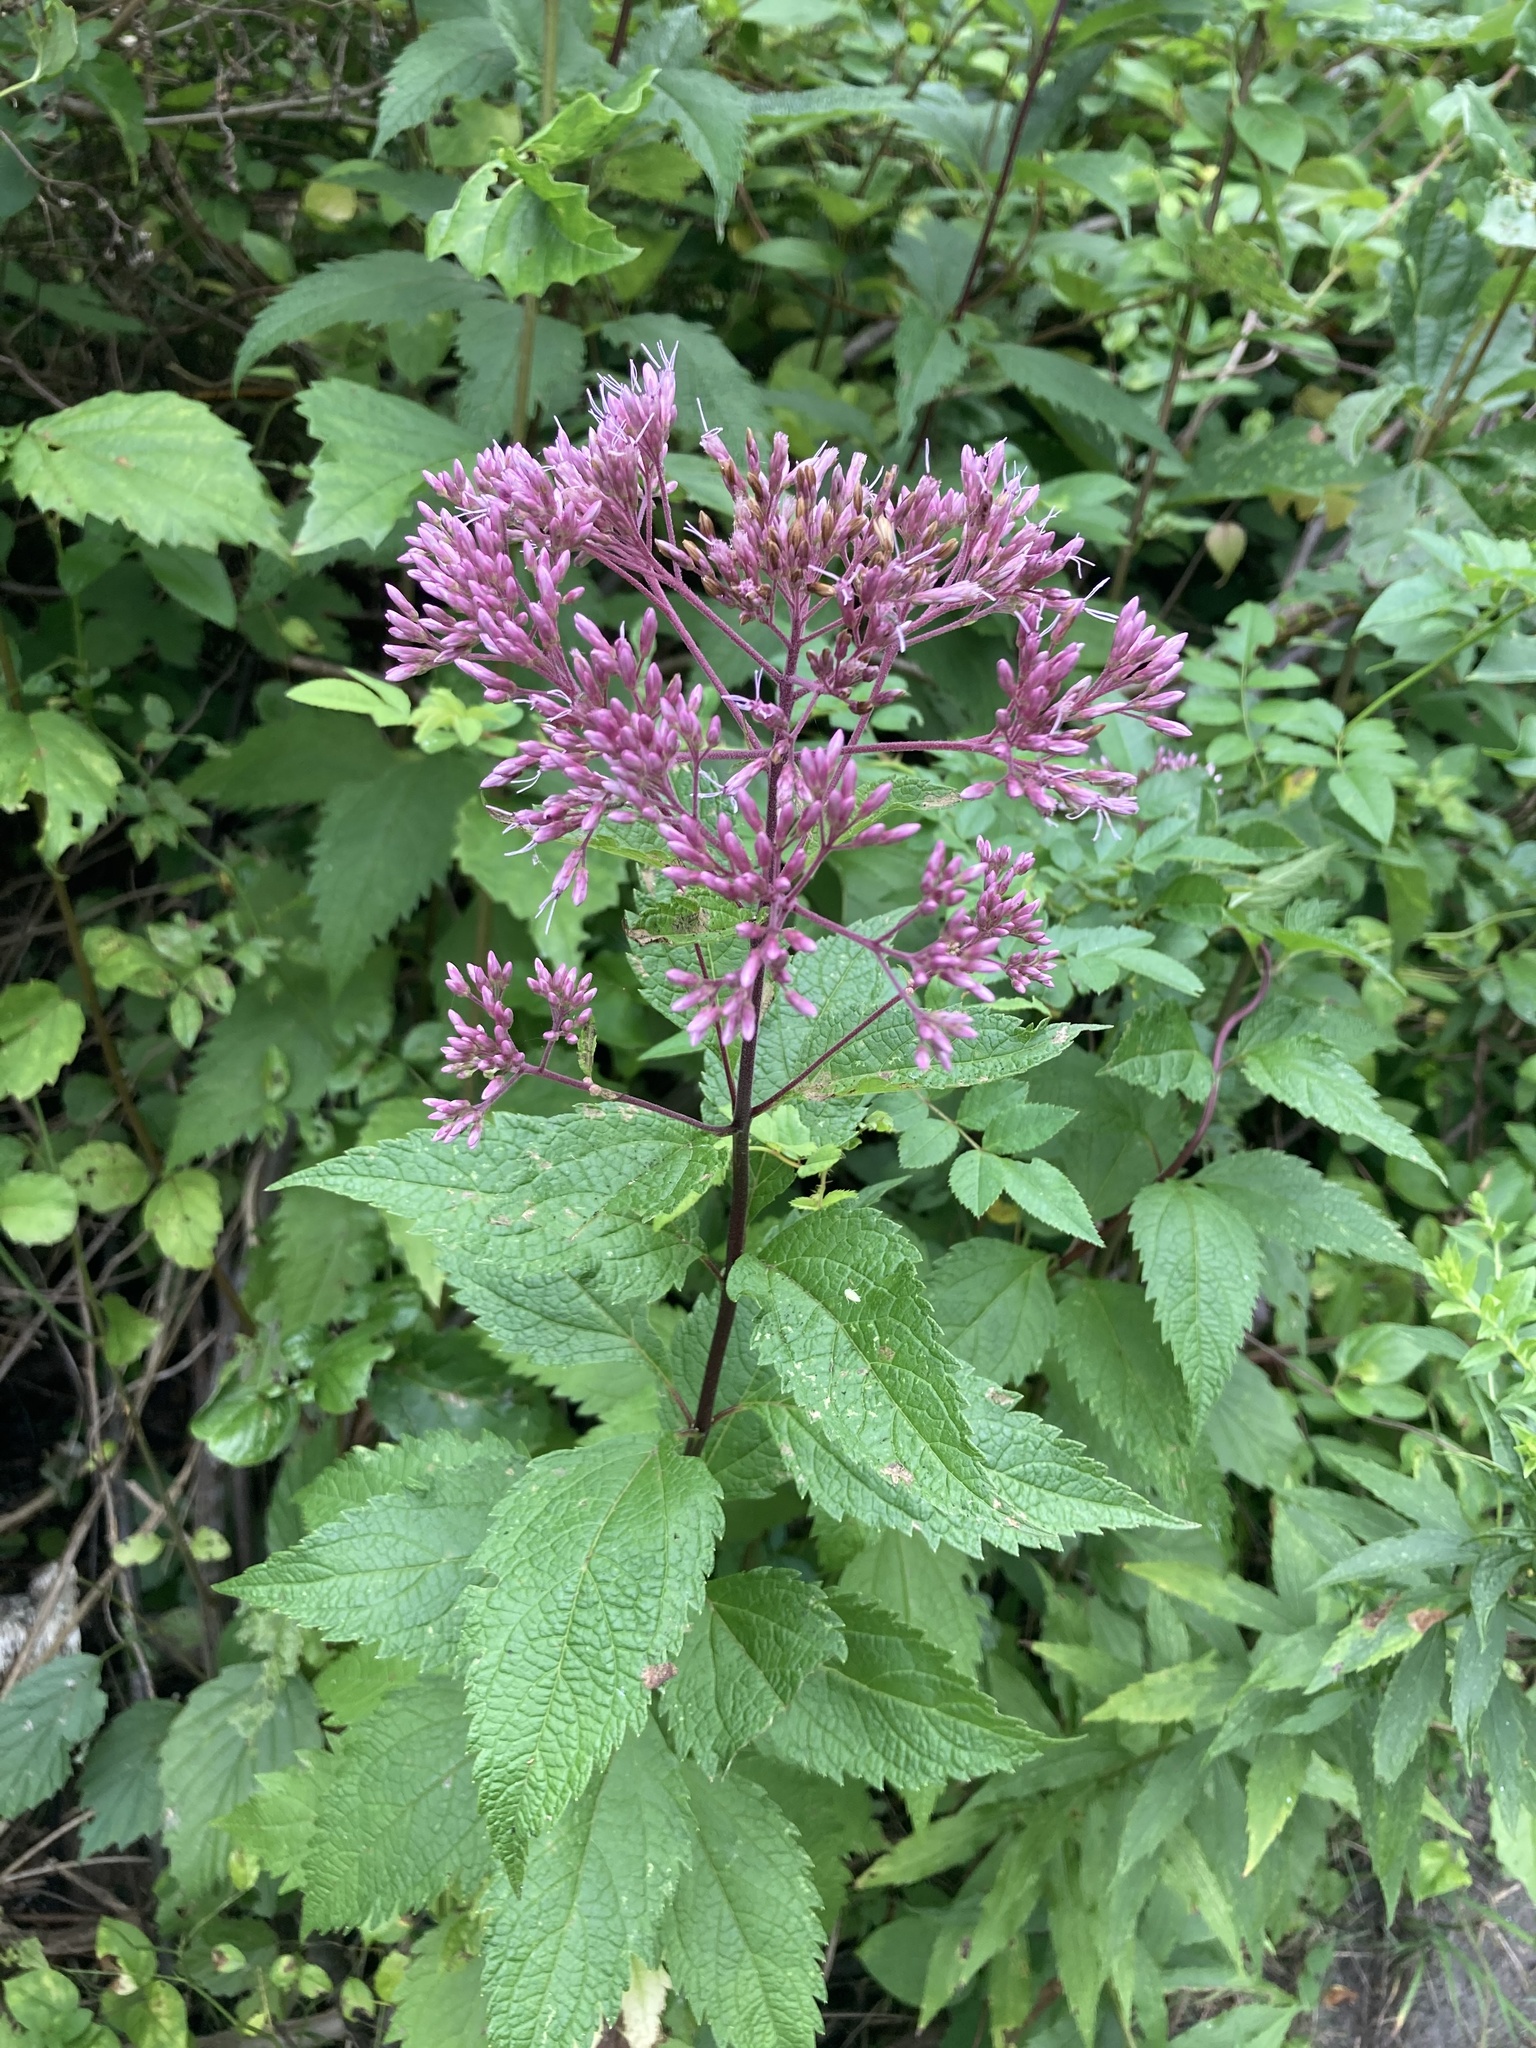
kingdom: Plantae
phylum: Tracheophyta
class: Magnoliopsida
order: Asterales
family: Asteraceae
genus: Eutrochium
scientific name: Eutrochium dubium
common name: Coastal plain joe pye weed
